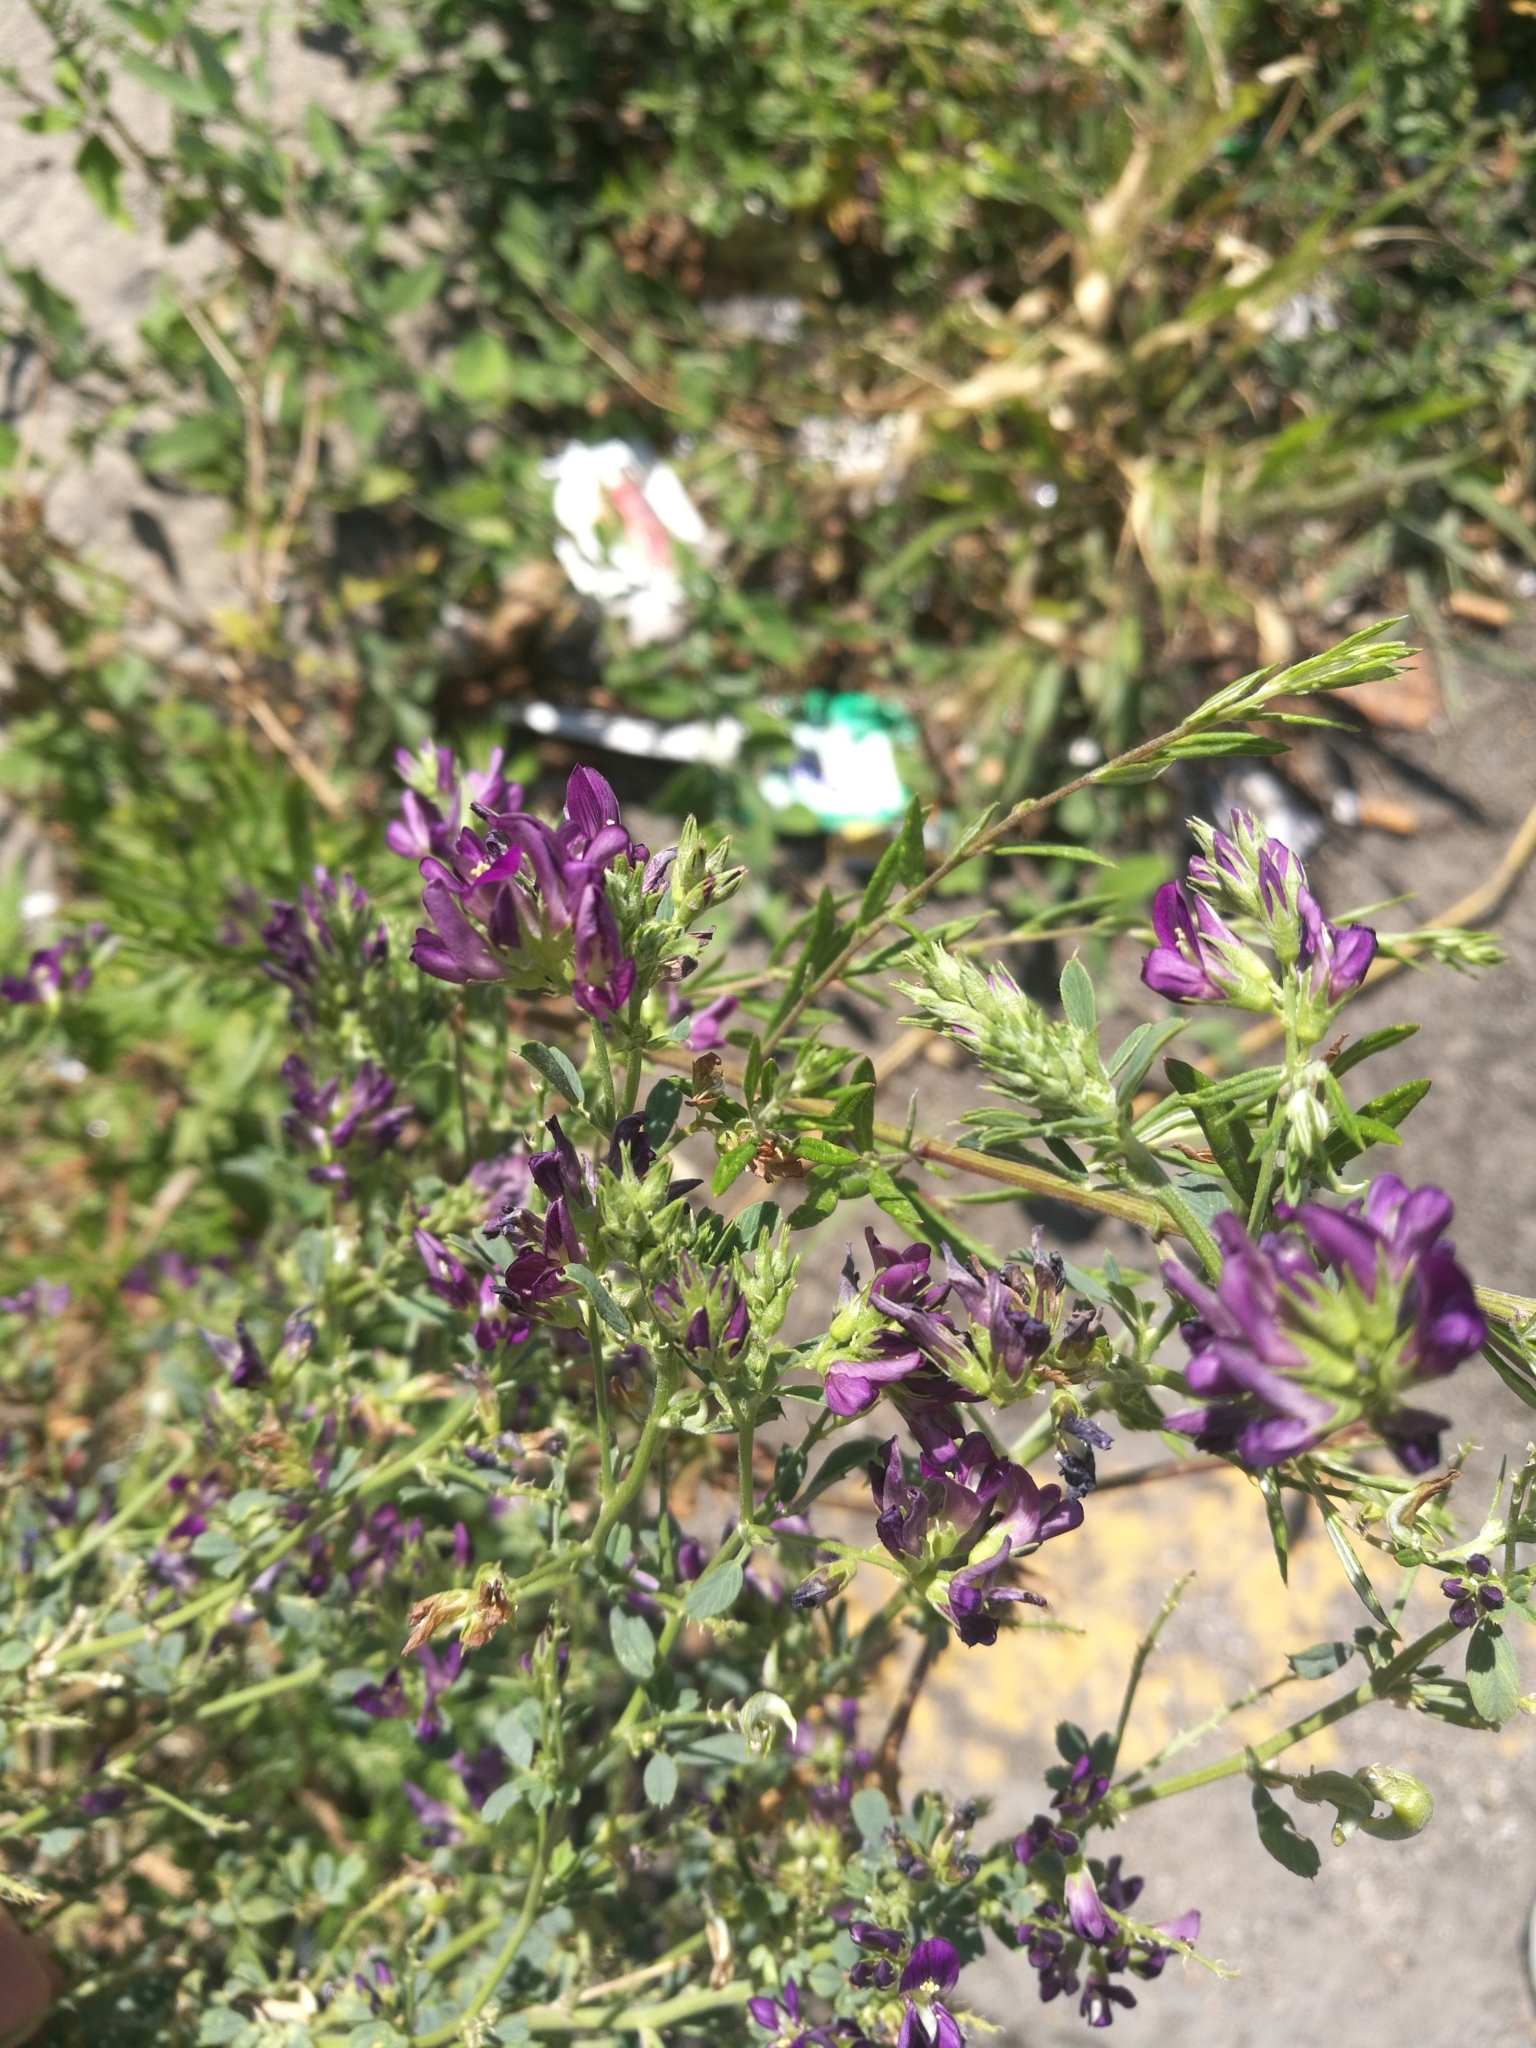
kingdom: Plantae
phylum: Tracheophyta
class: Magnoliopsida
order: Fabales
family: Fabaceae
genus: Medicago
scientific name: Medicago sativa
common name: Alfalfa
